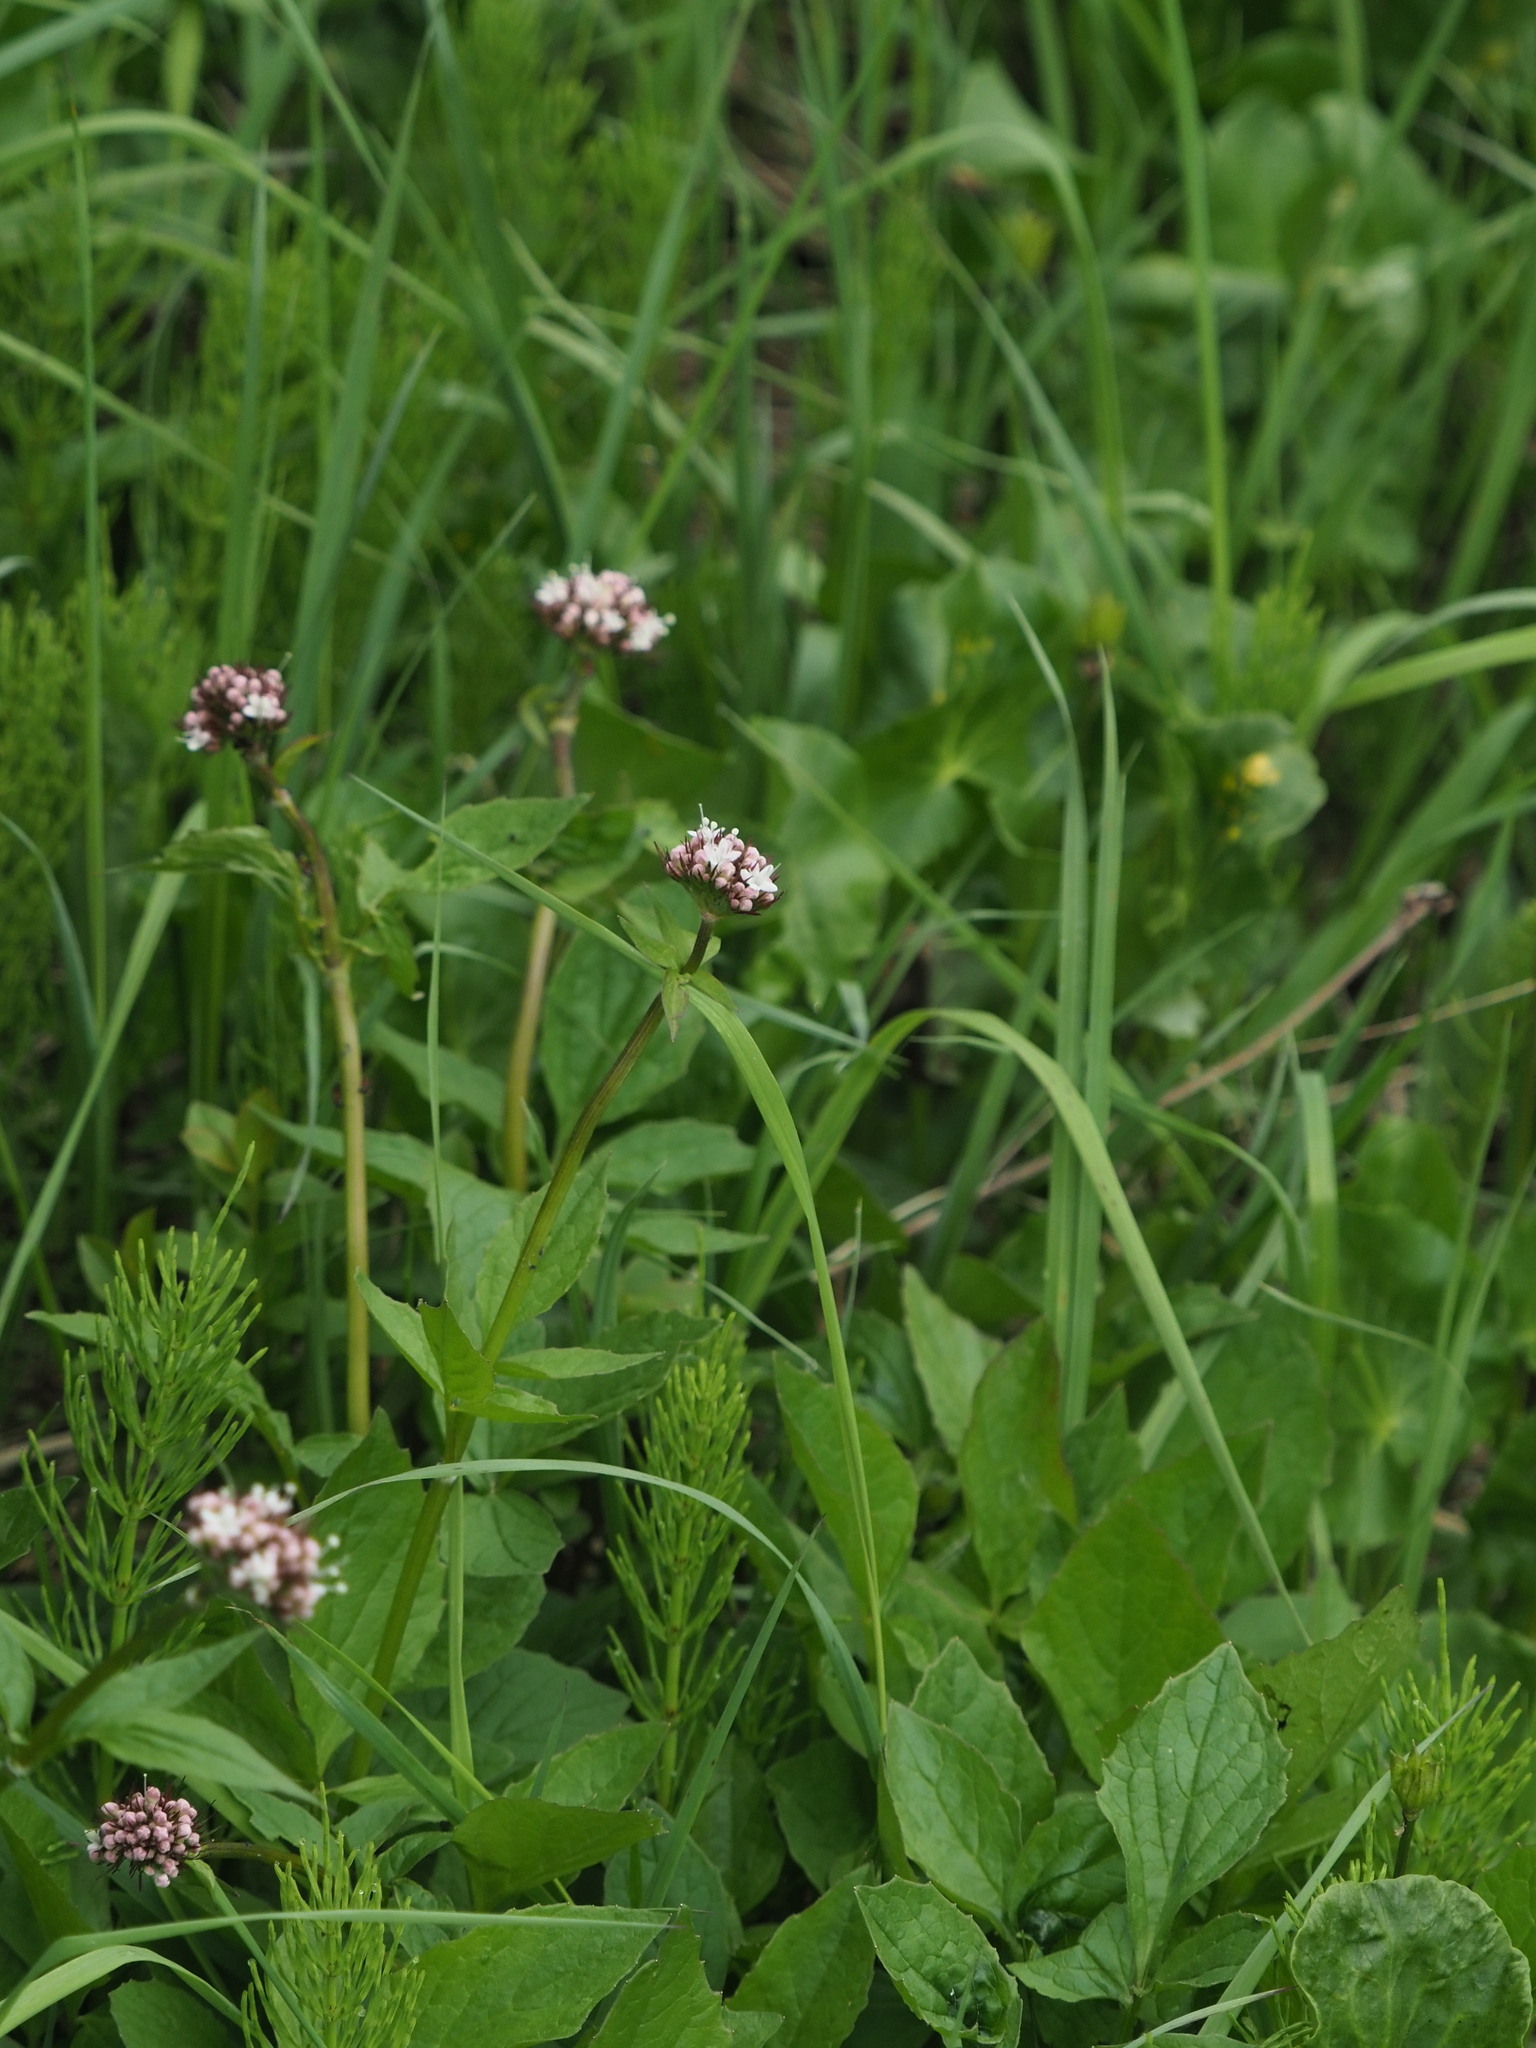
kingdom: Plantae
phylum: Tracheophyta
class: Magnoliopsida
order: Dipsacales
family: Caprifoliaceae
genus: Valeriana
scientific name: Valeriana sitchensis
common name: Pacific valerian
